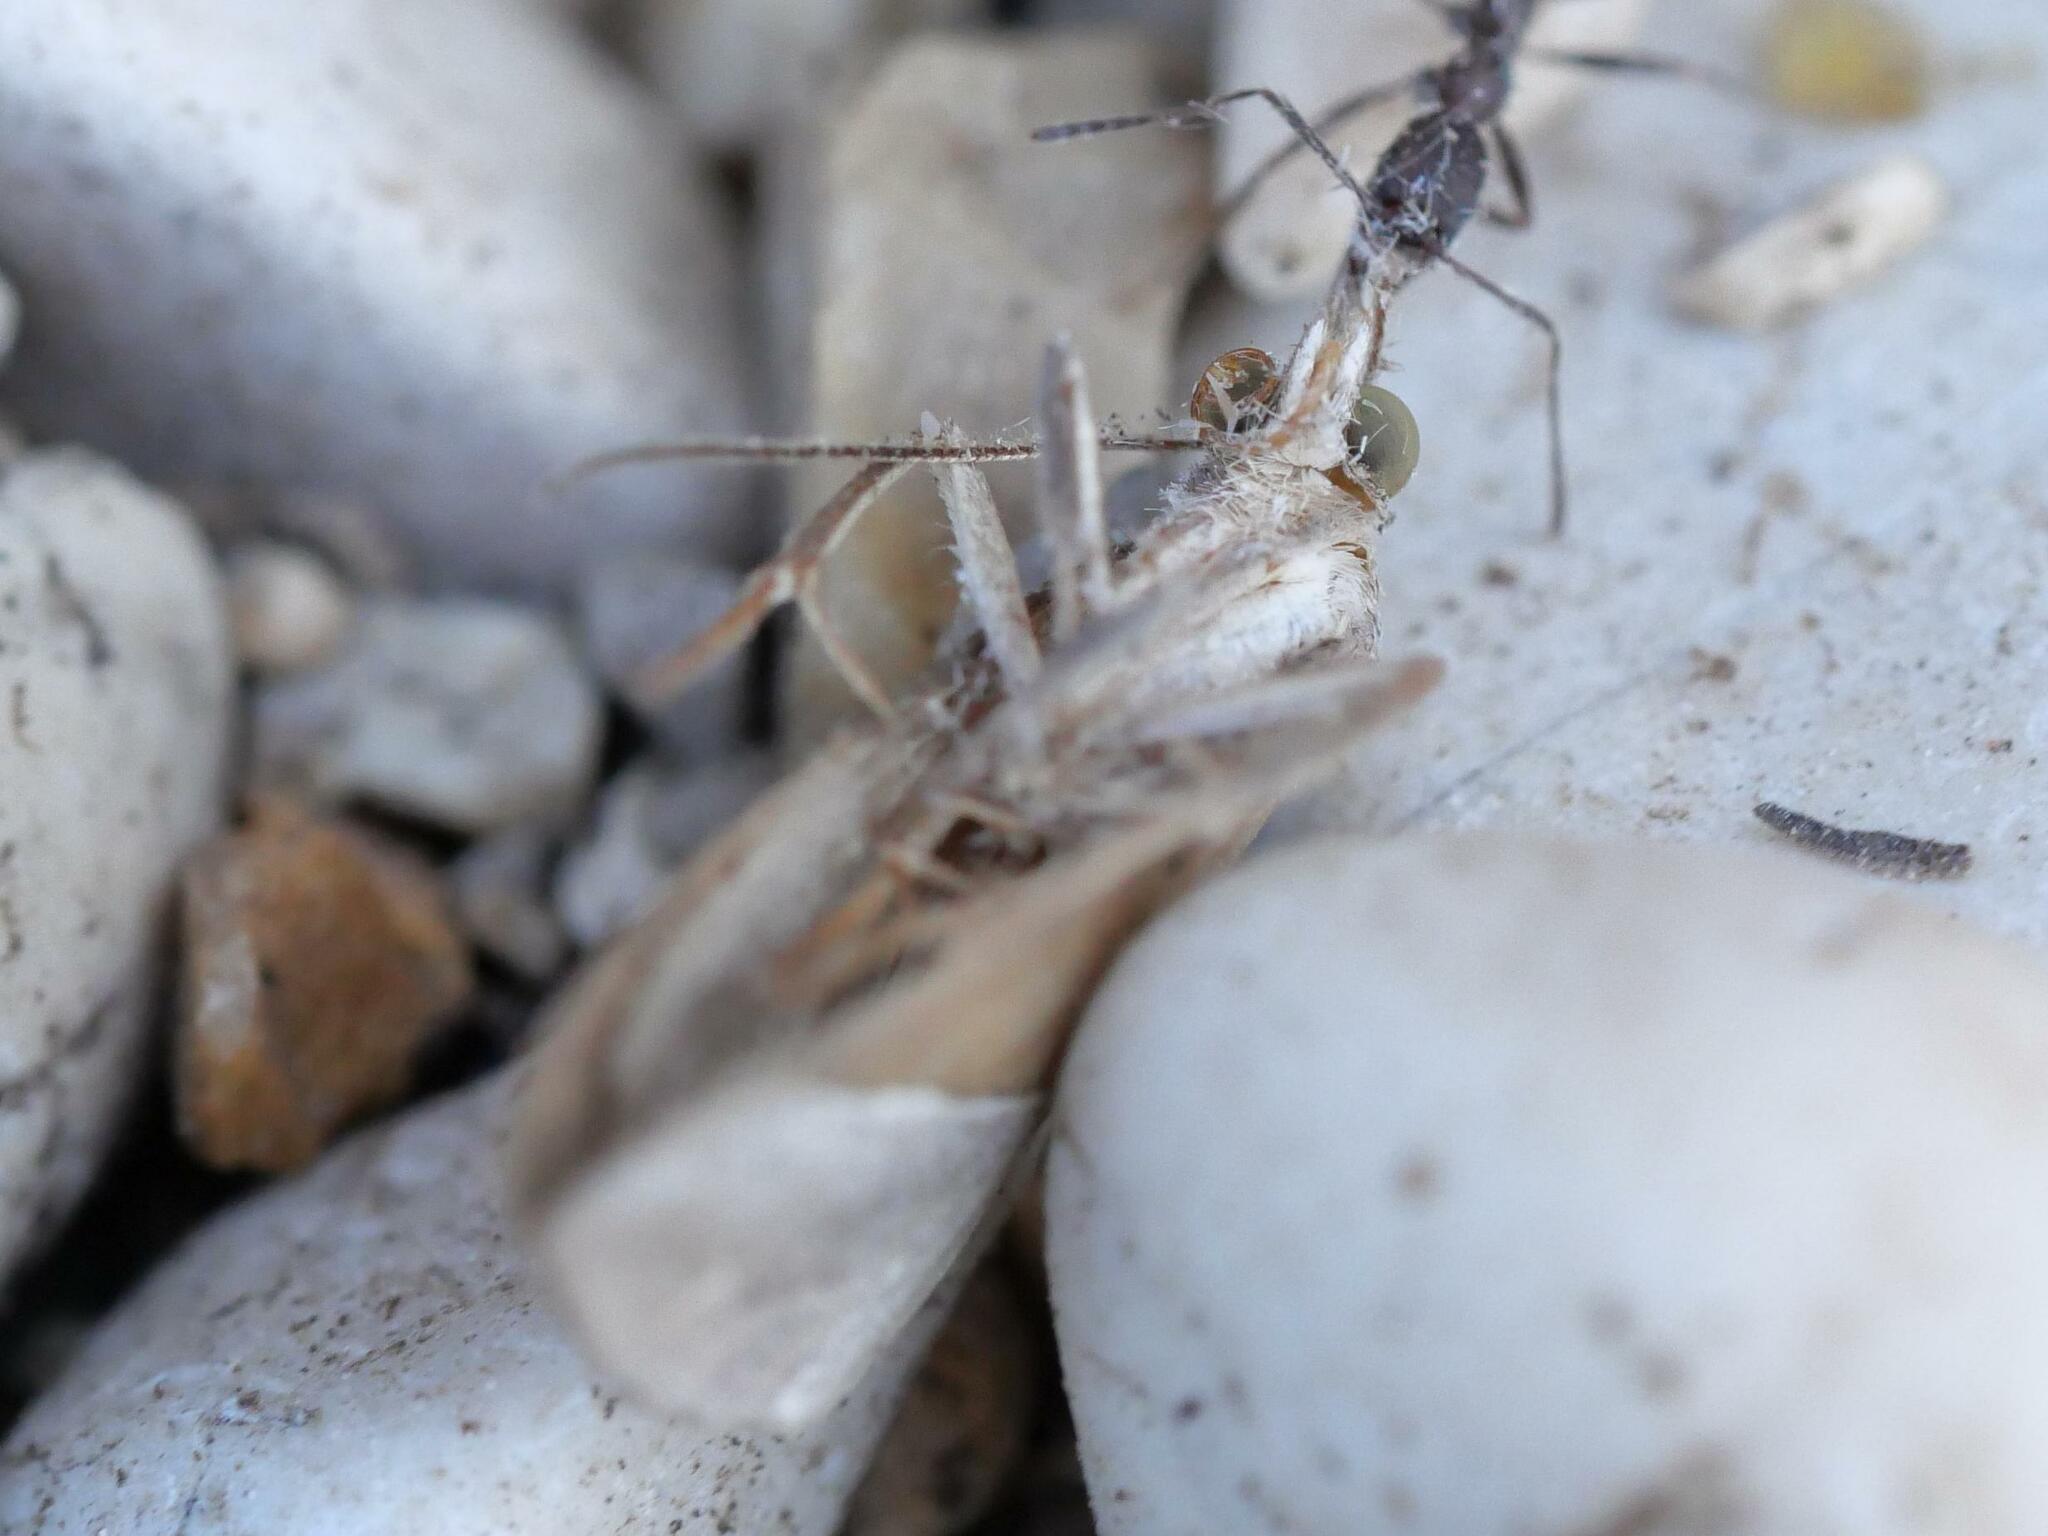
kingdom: Animalia
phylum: Arthropoda
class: Insecta
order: Lepidoptera
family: Erebidae
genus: Hypena
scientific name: Hypena lividalis
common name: Chevron snout
